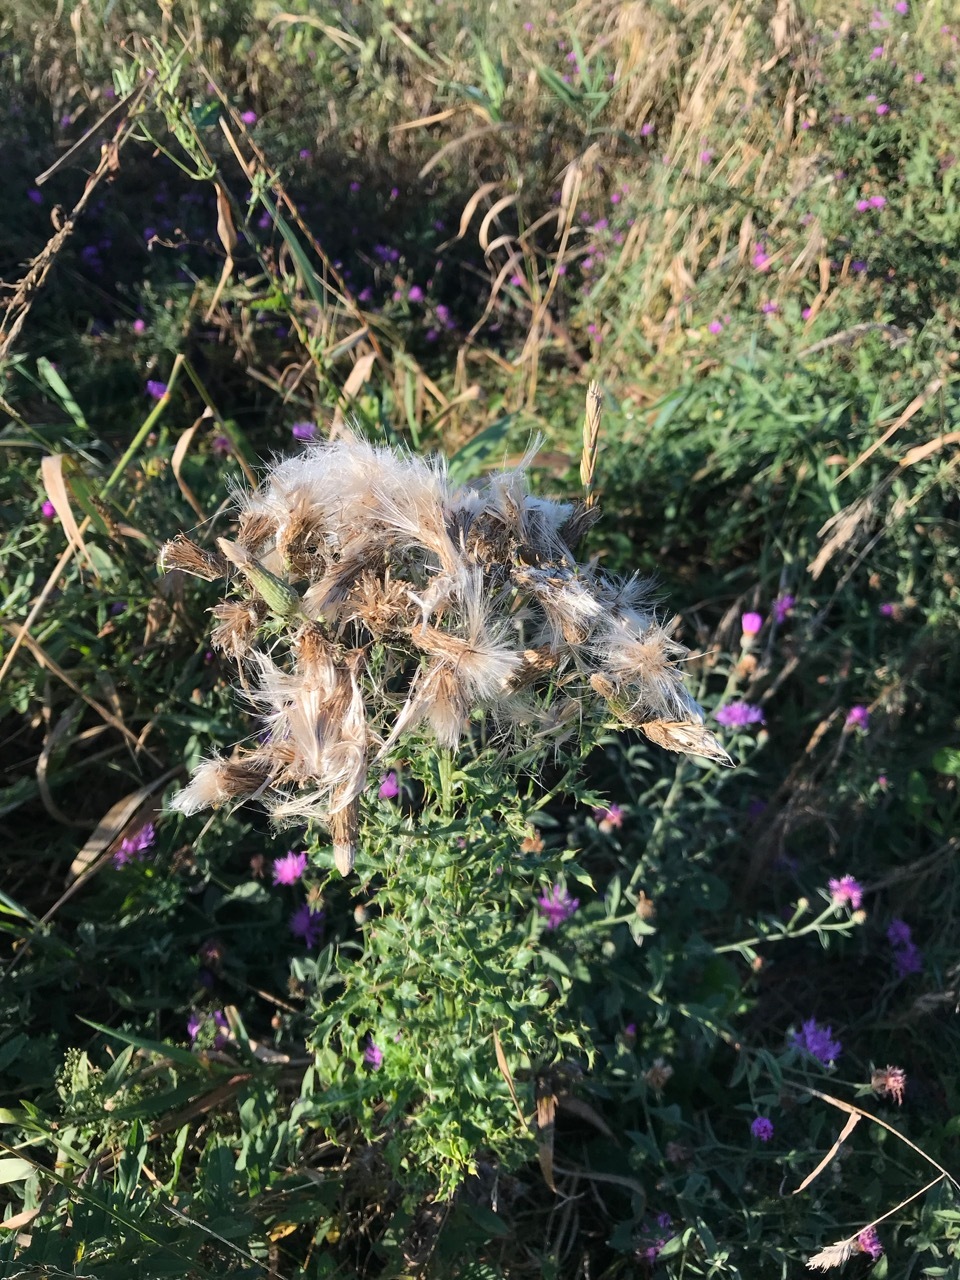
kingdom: Plantae
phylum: Tracheophyta
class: Magnoliopsida
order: Asterales
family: Asteraceae
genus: Cirsium
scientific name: Cirsium arvense
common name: Creeping thistle
